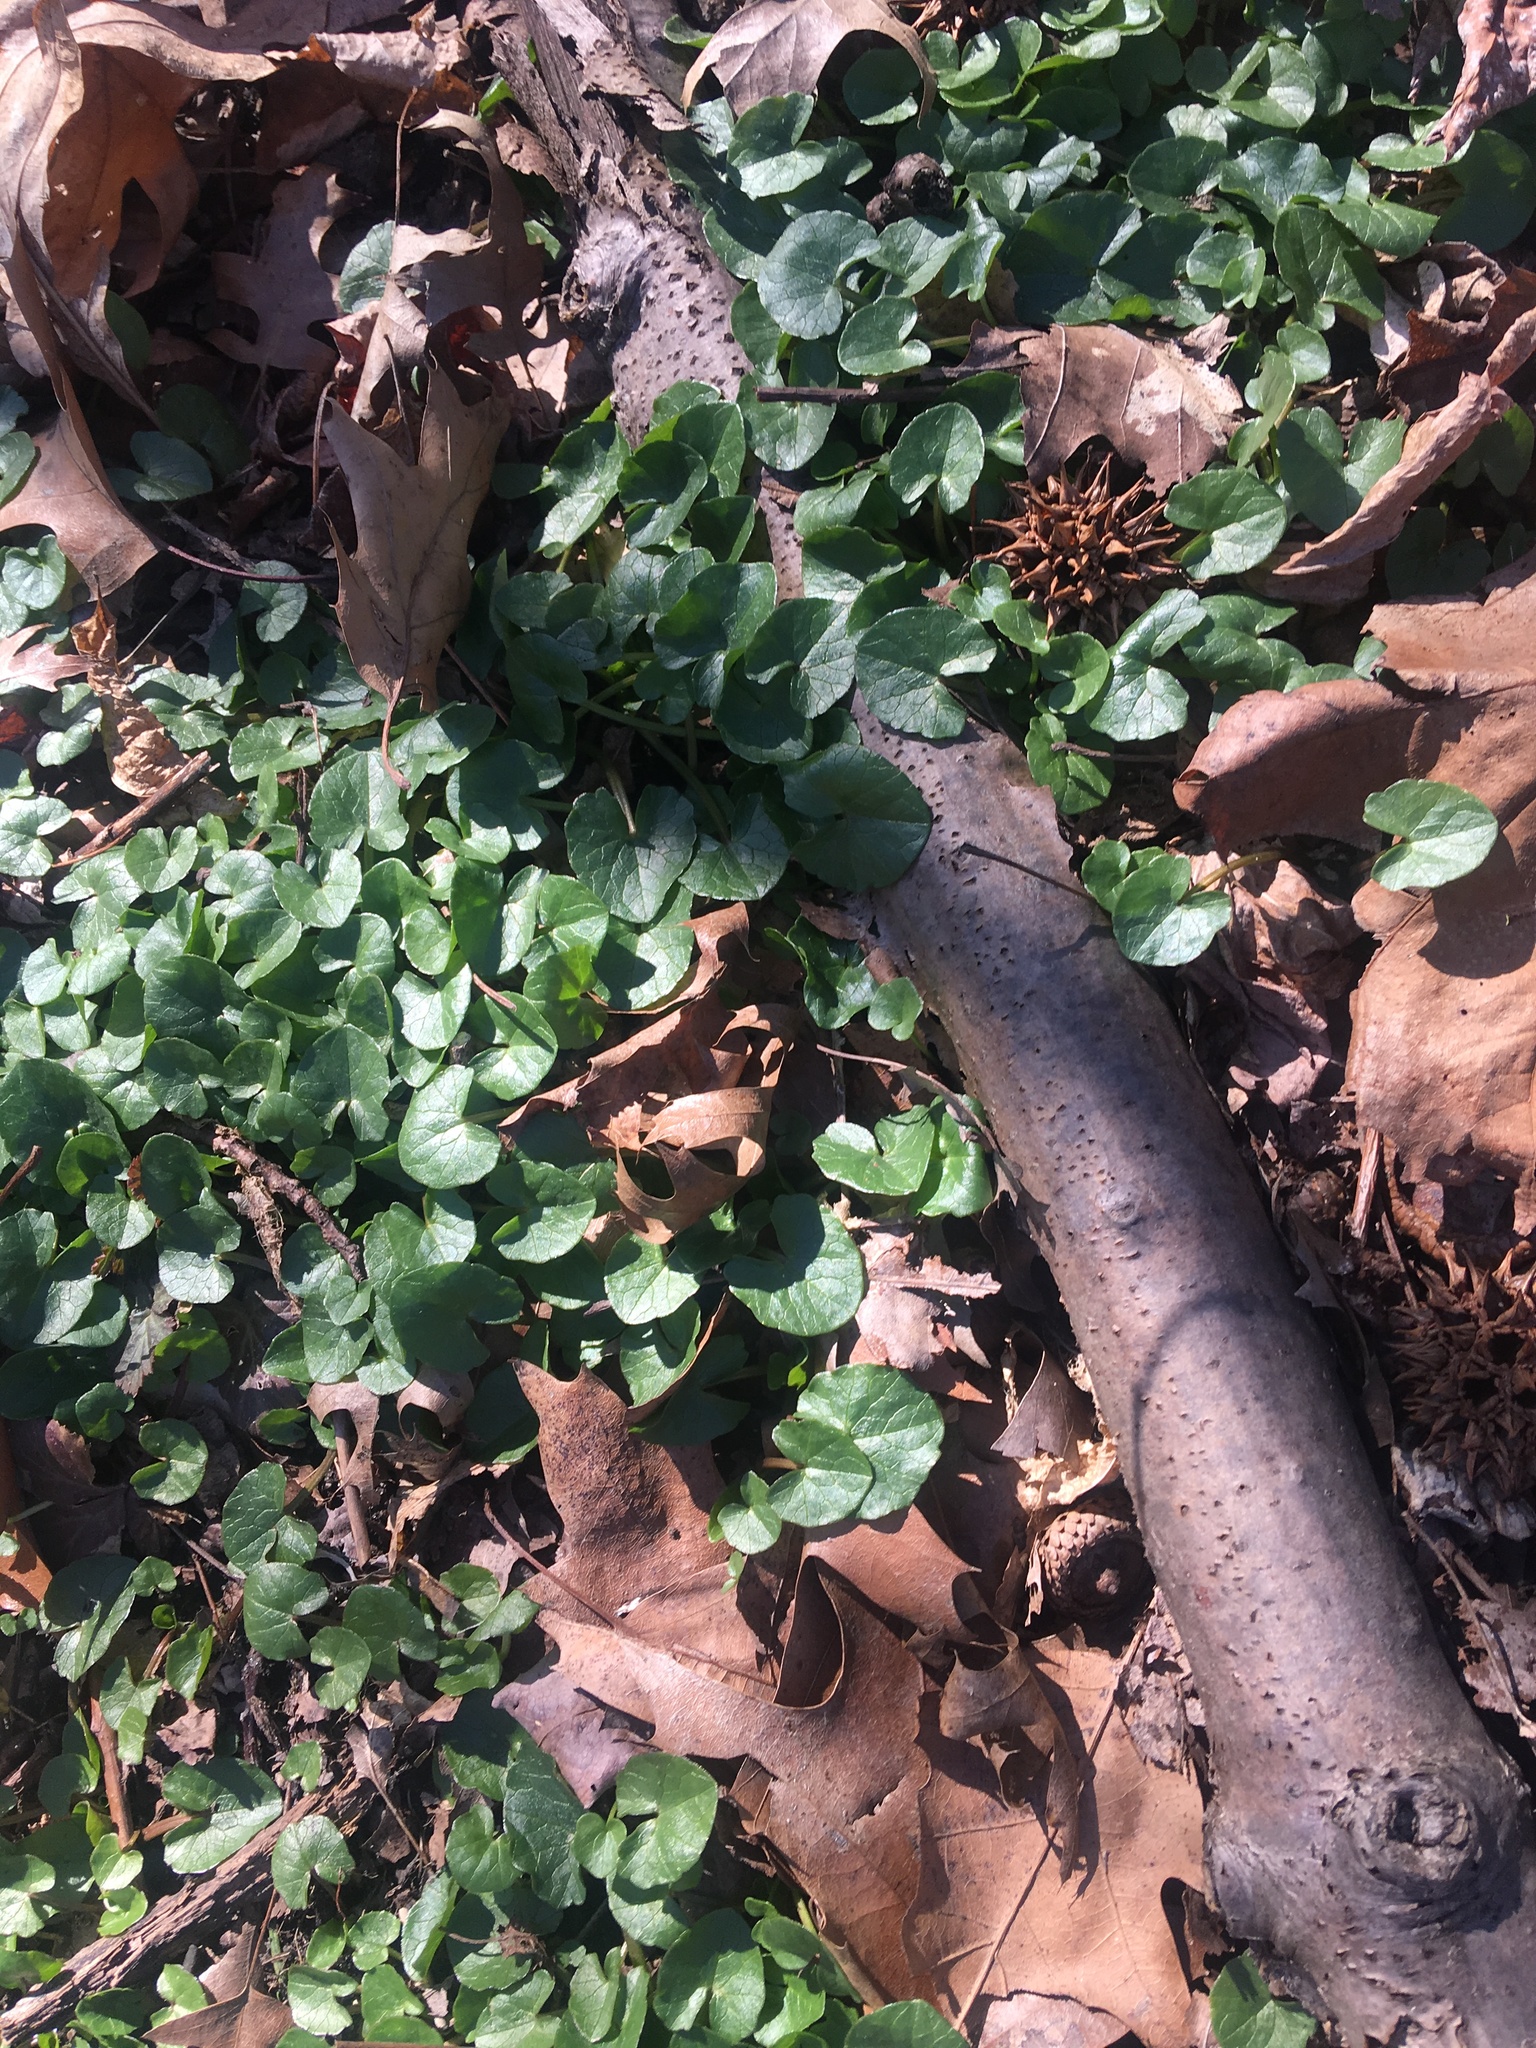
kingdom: Plantae
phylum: Tracheophyta
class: Magnoliopsida
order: Ranunculales
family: Ranunculaceae
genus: Ficaria
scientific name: Ficaria verna
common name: Lesser celandine
